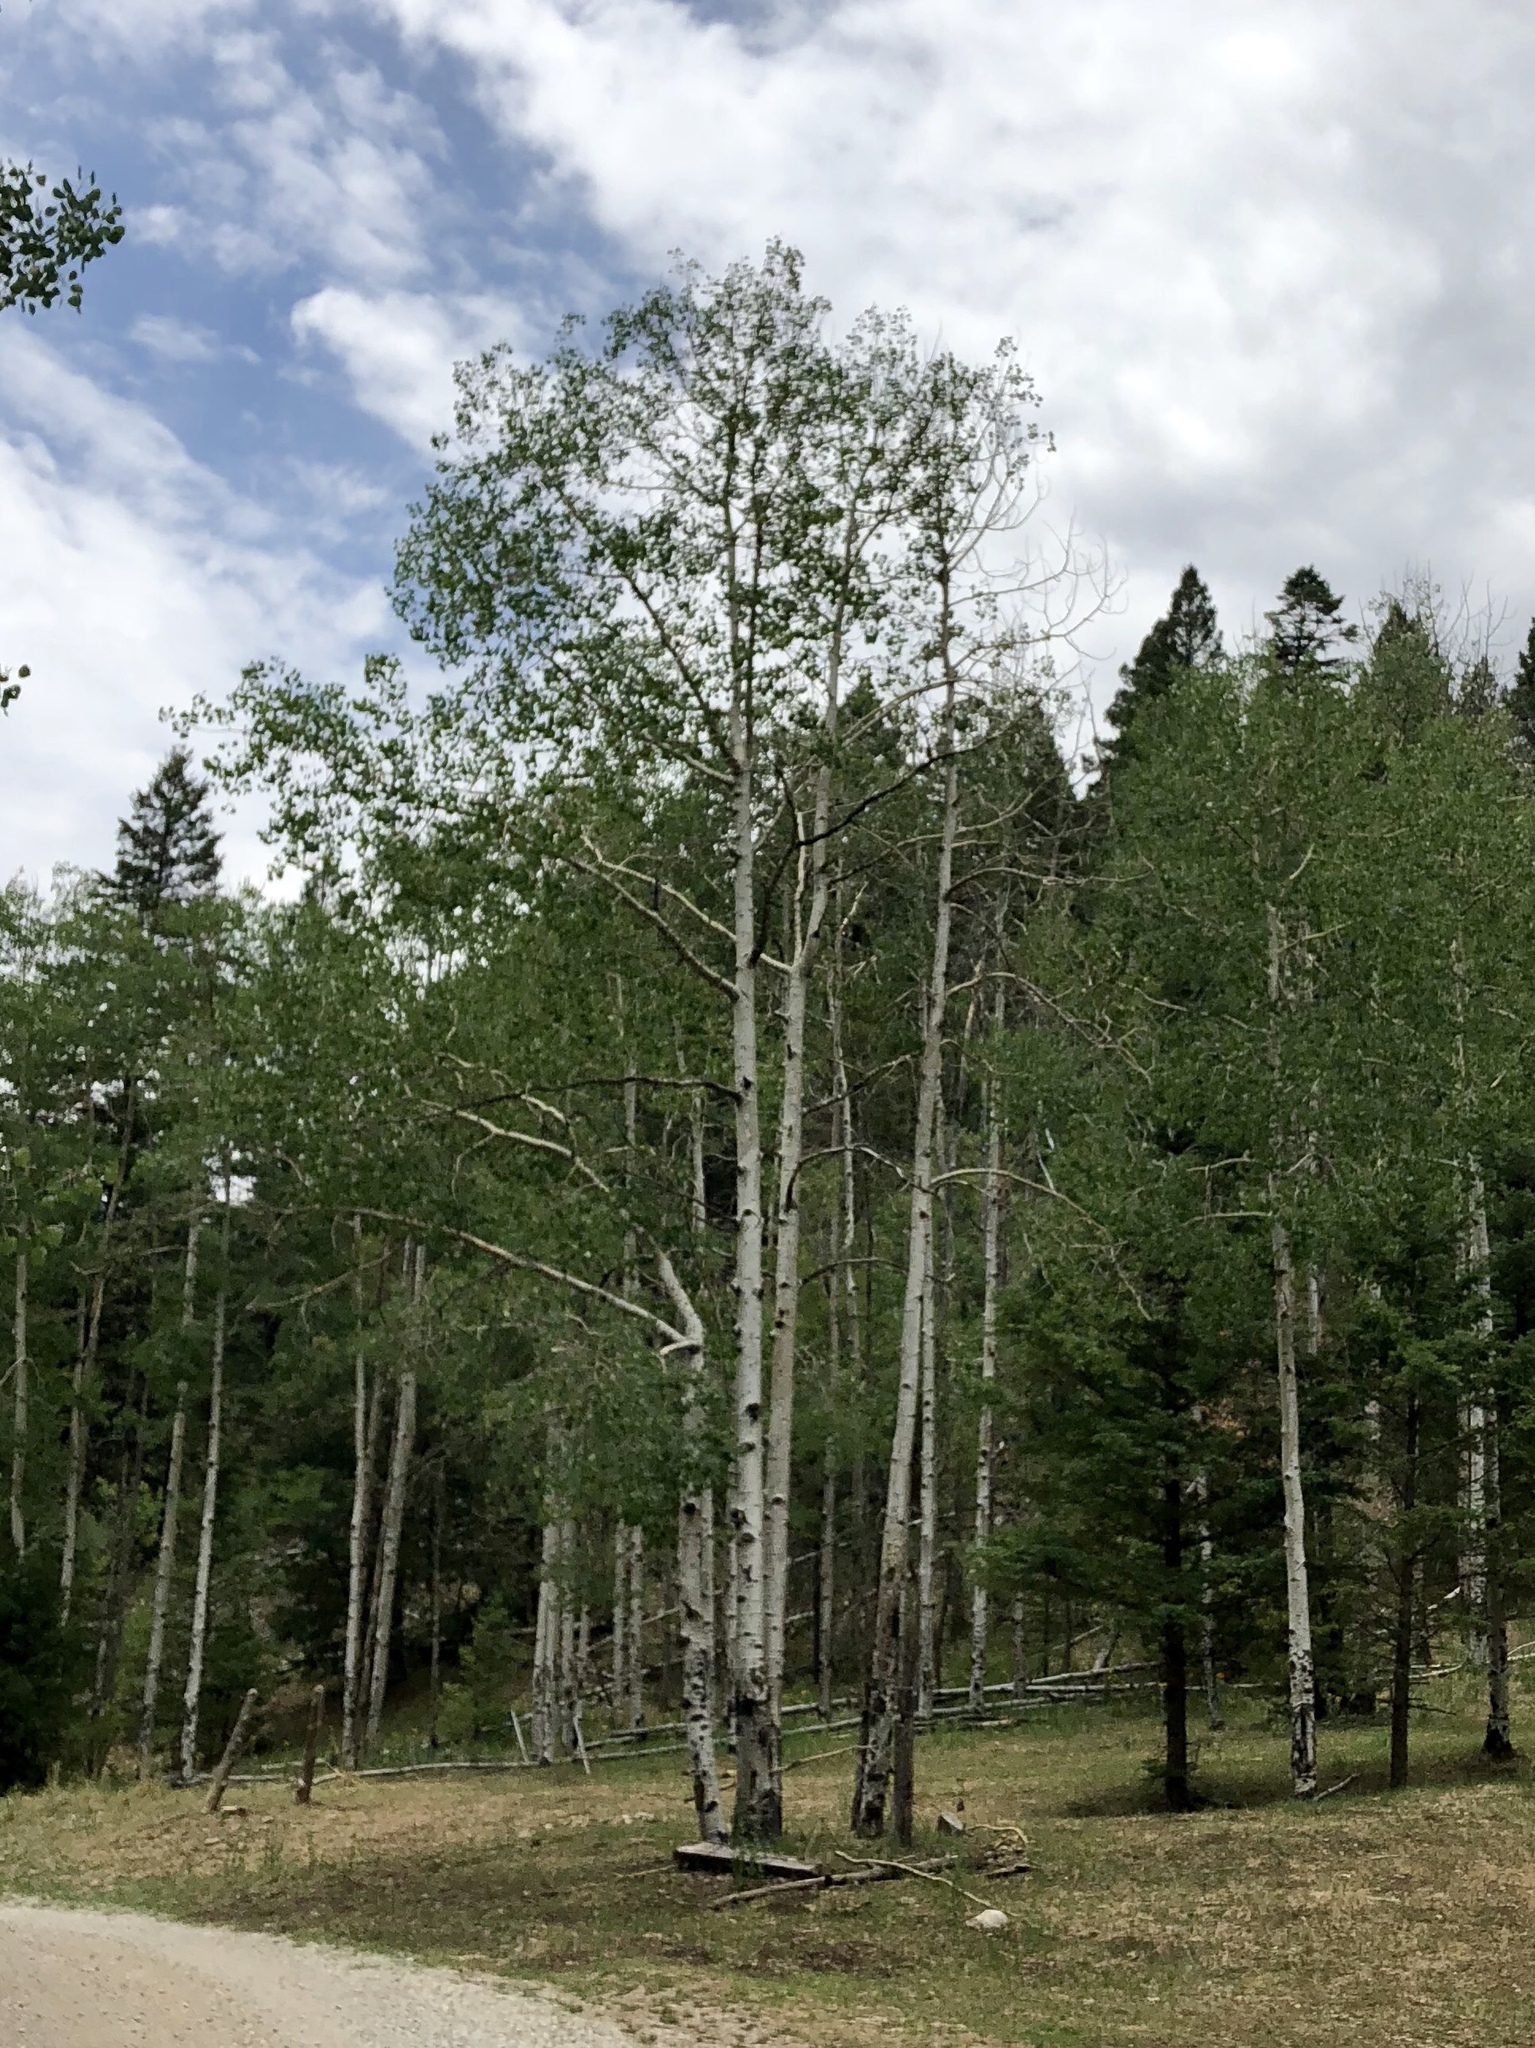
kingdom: Plantae
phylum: Tracheophyta
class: Magnoliopsida
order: Malpighiales
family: Salicaceae
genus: Populus
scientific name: Populus tremuloides
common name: Quaking aspen
